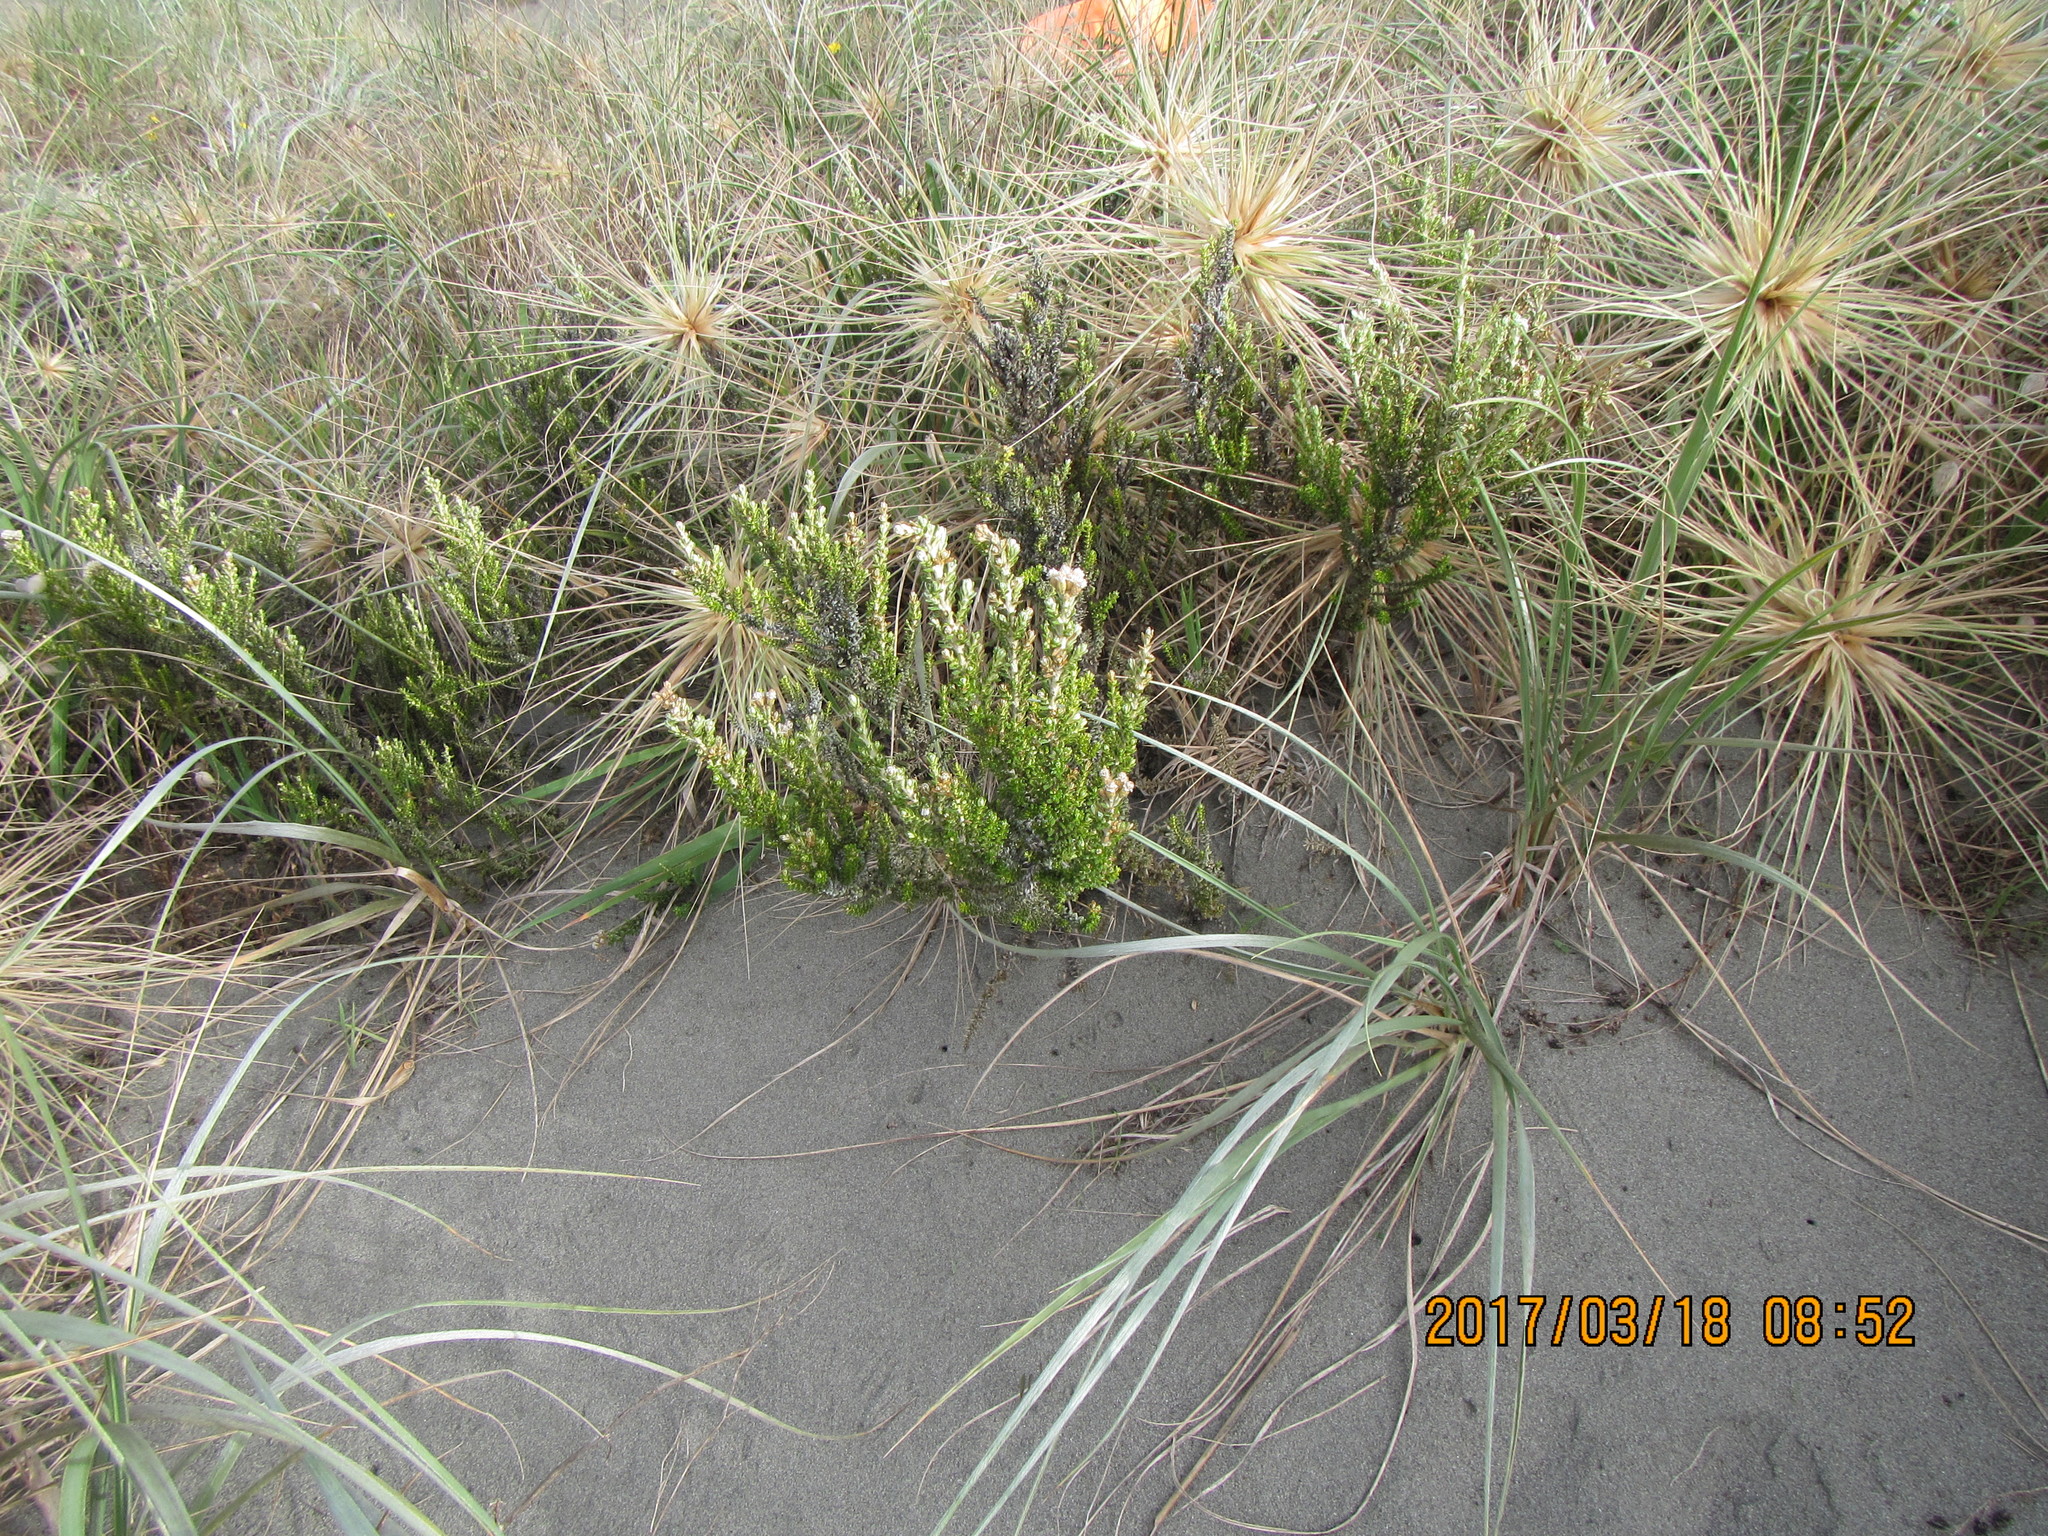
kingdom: Plantae
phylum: Tracheophyta
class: Magnoliopsida
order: Asterales
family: Asteraceae
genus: Ozothamnus
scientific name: Ozothamnus leptophyllus
